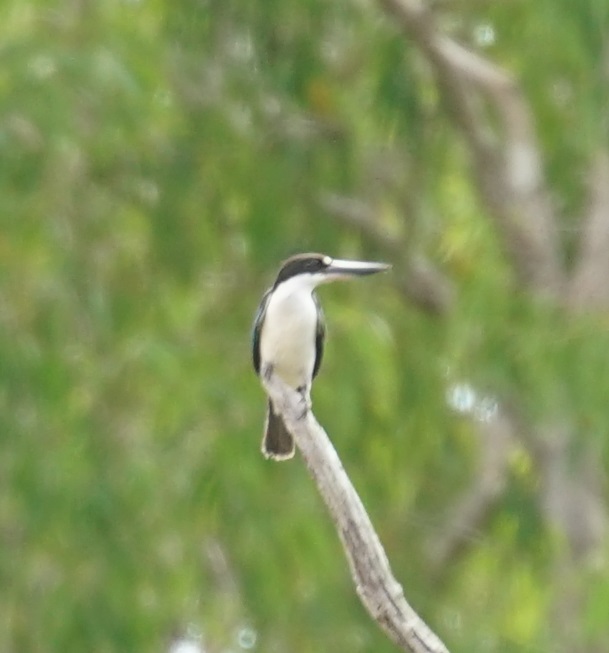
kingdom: Animalia
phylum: Chordata
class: Aves
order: Coraciiformes
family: Alcedinidae
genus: Todiramphus
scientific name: Todiramphus sordidus
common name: Torresian kingfisher
